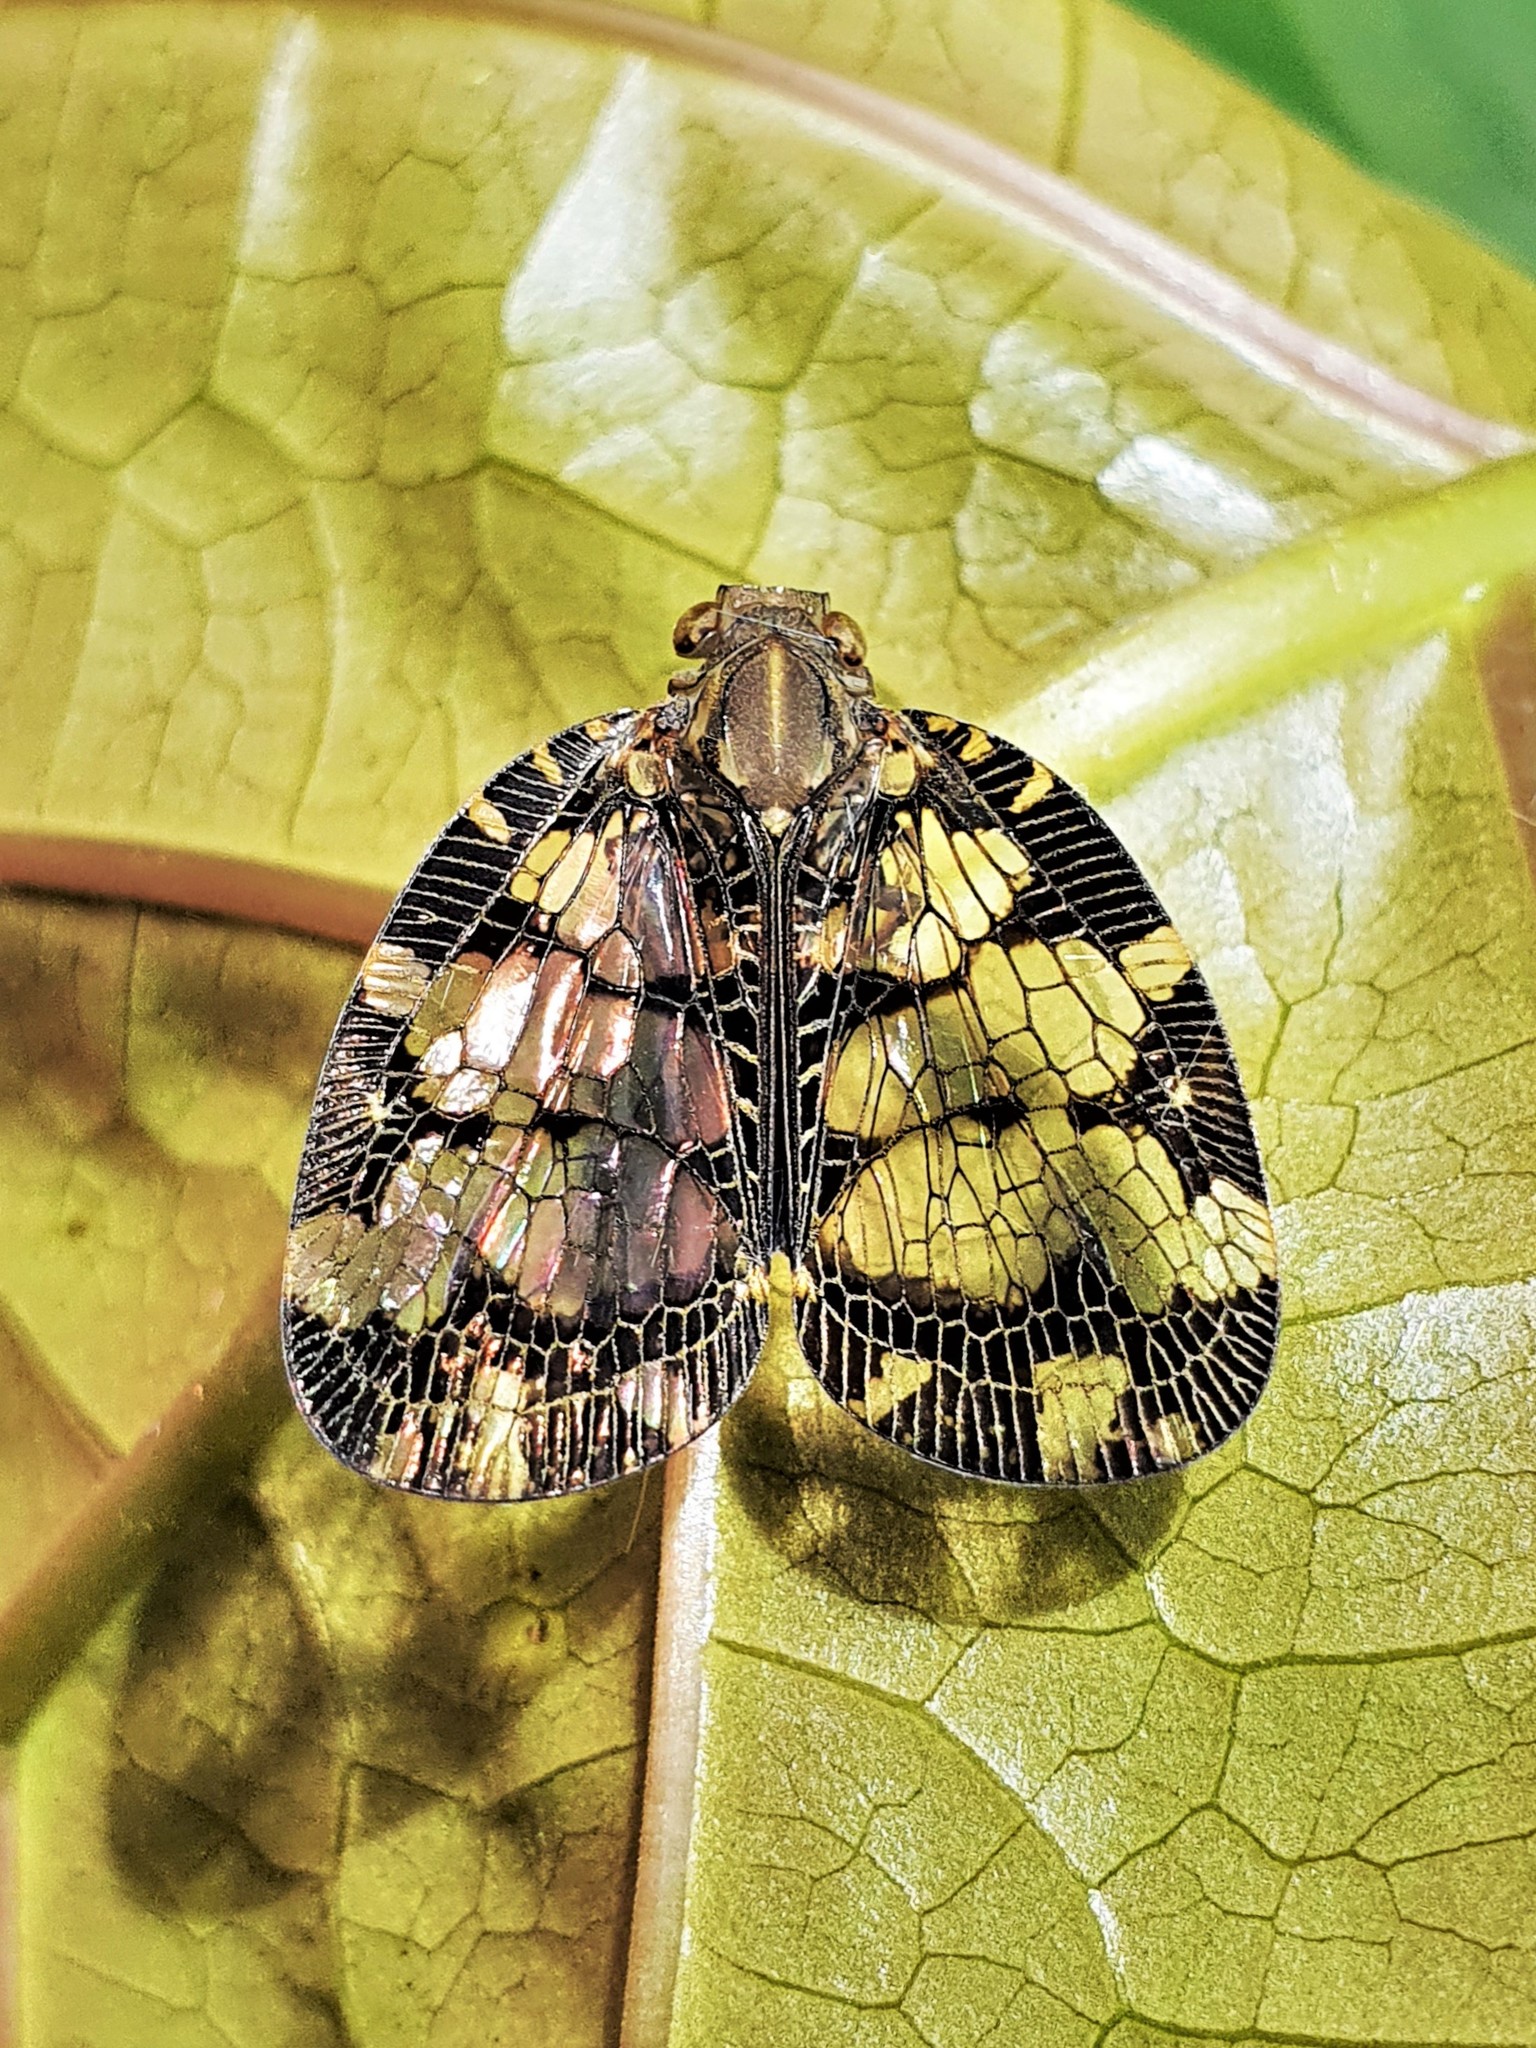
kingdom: Animalia
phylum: Arthropoda
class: Insecta
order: Hemiptera
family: Nogodinidae
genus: Nogodina
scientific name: Nogodina reticulata
